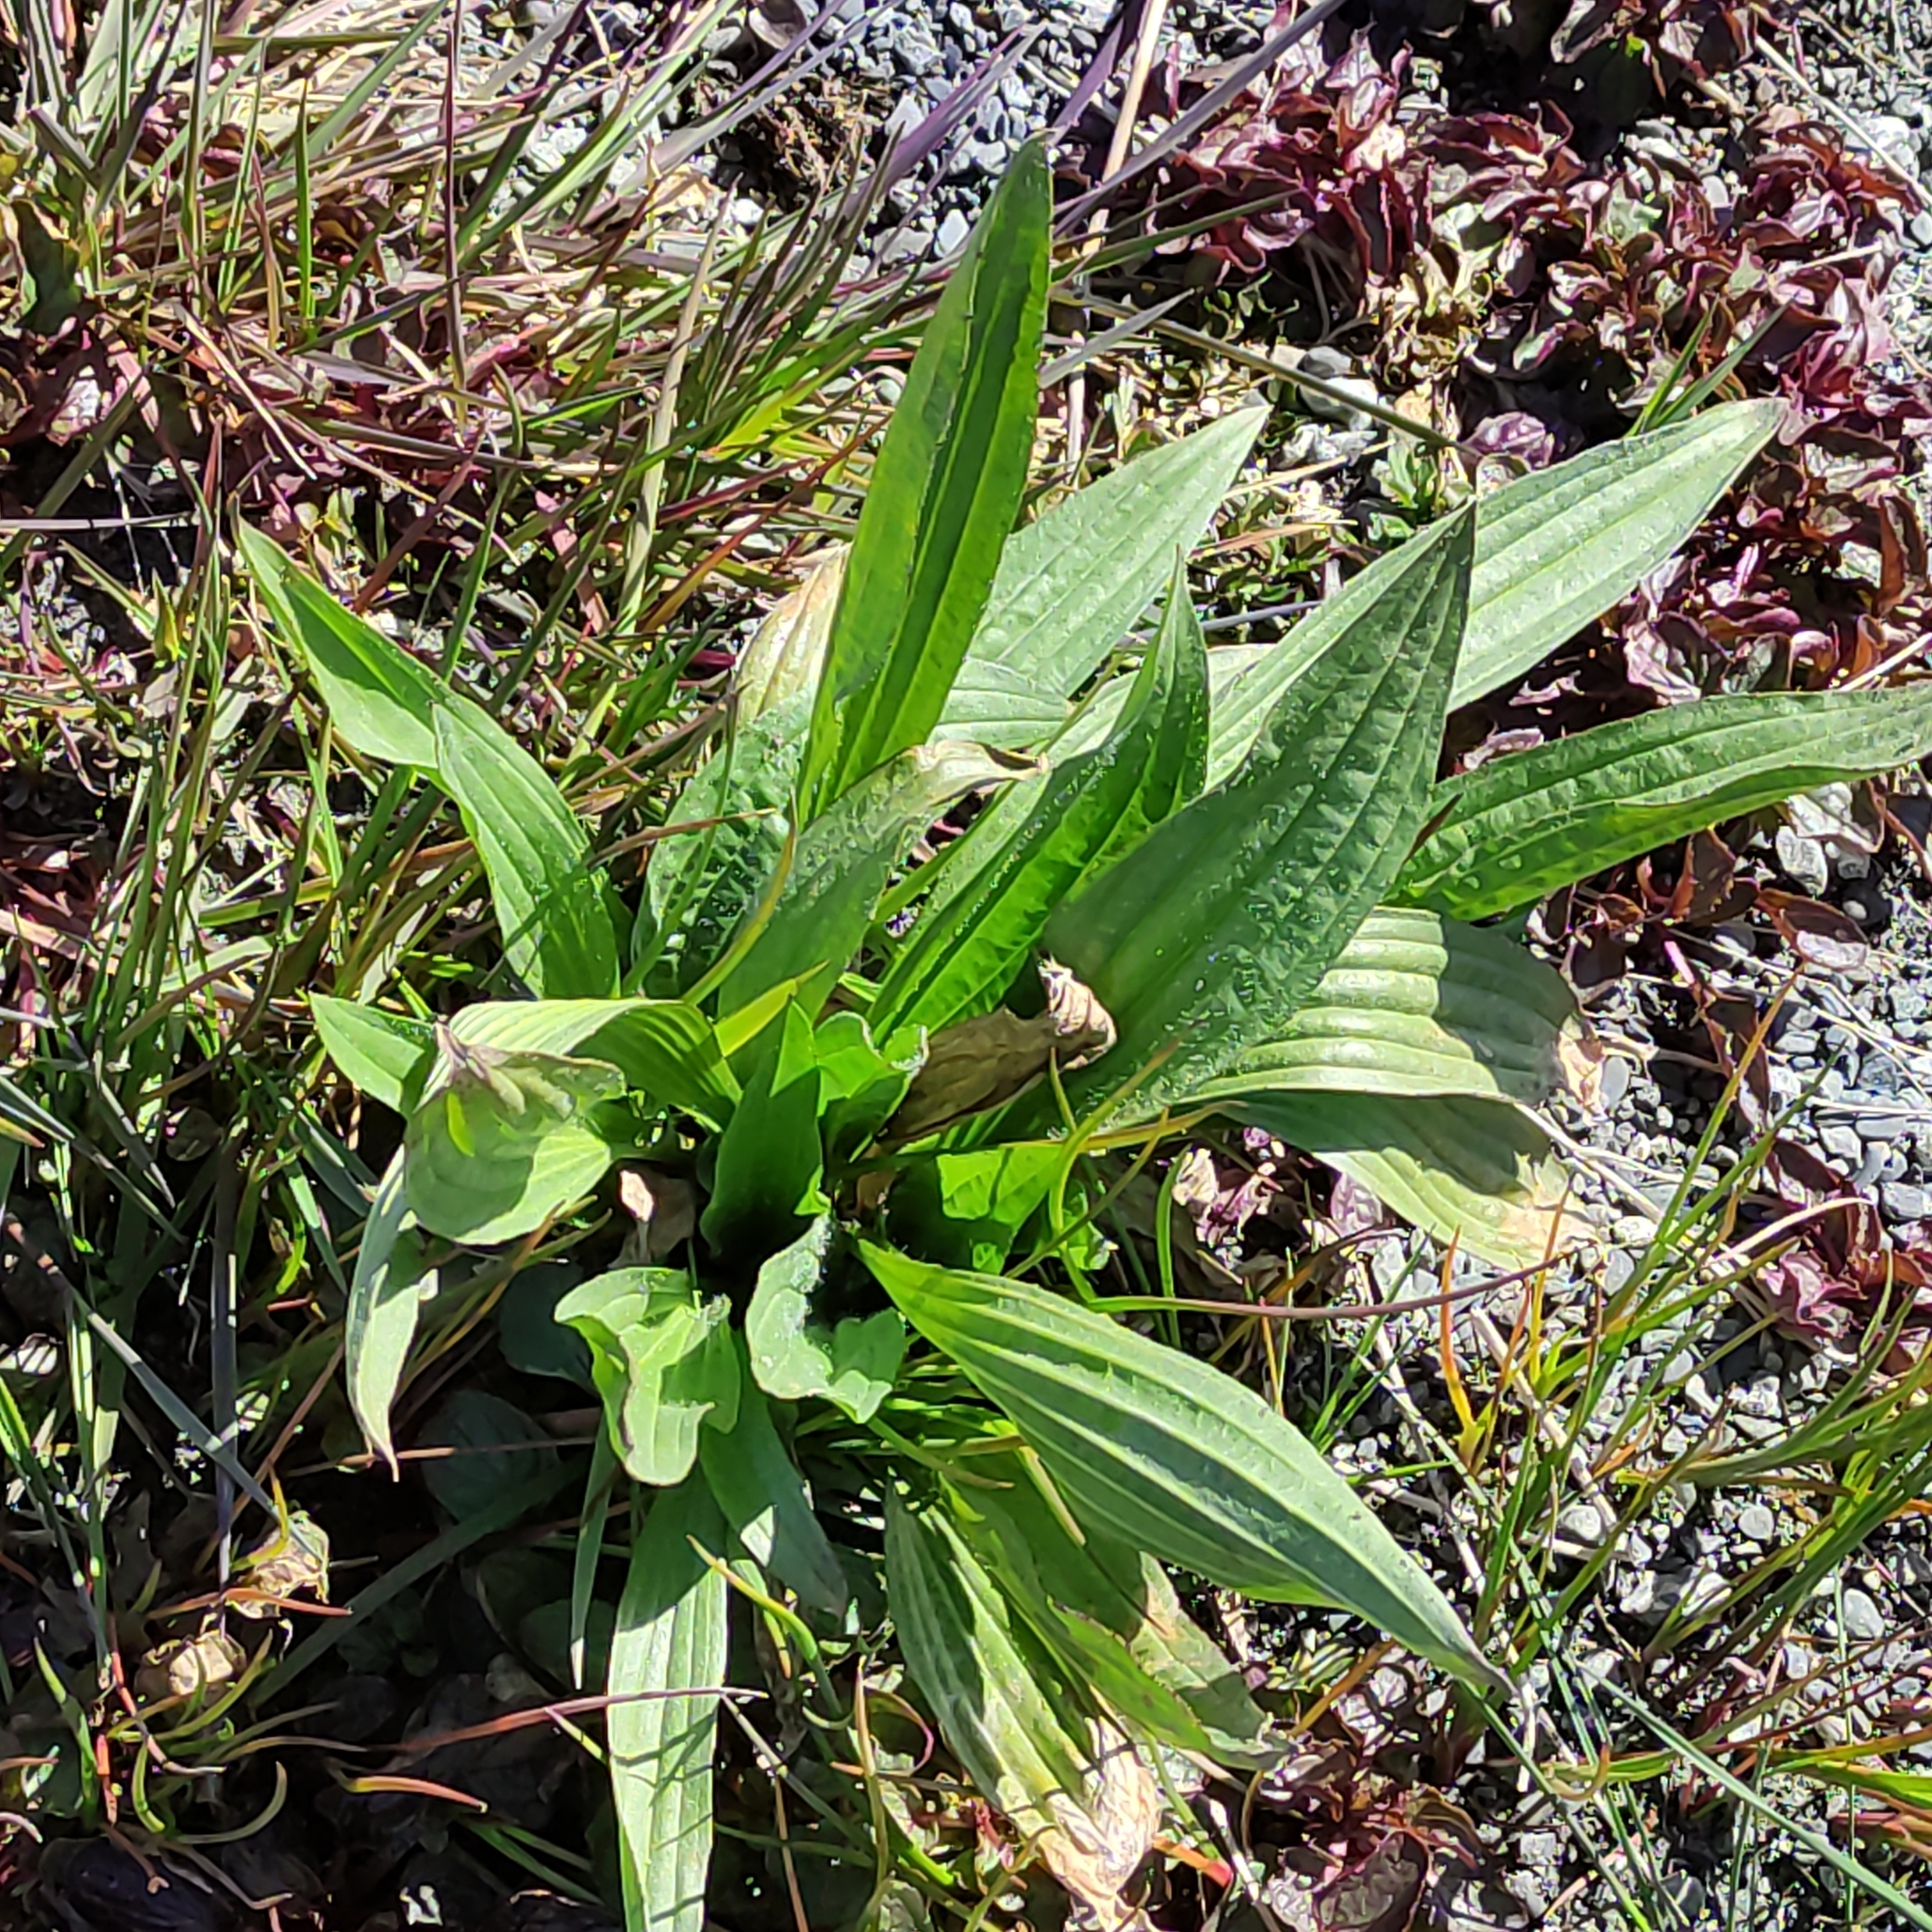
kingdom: Plantae
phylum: Tracheophyta
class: Magnoliopsida
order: Lamiales
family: Plantaginaceae
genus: Plantago
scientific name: Plantago lanceolata
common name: Ribwort plantain
